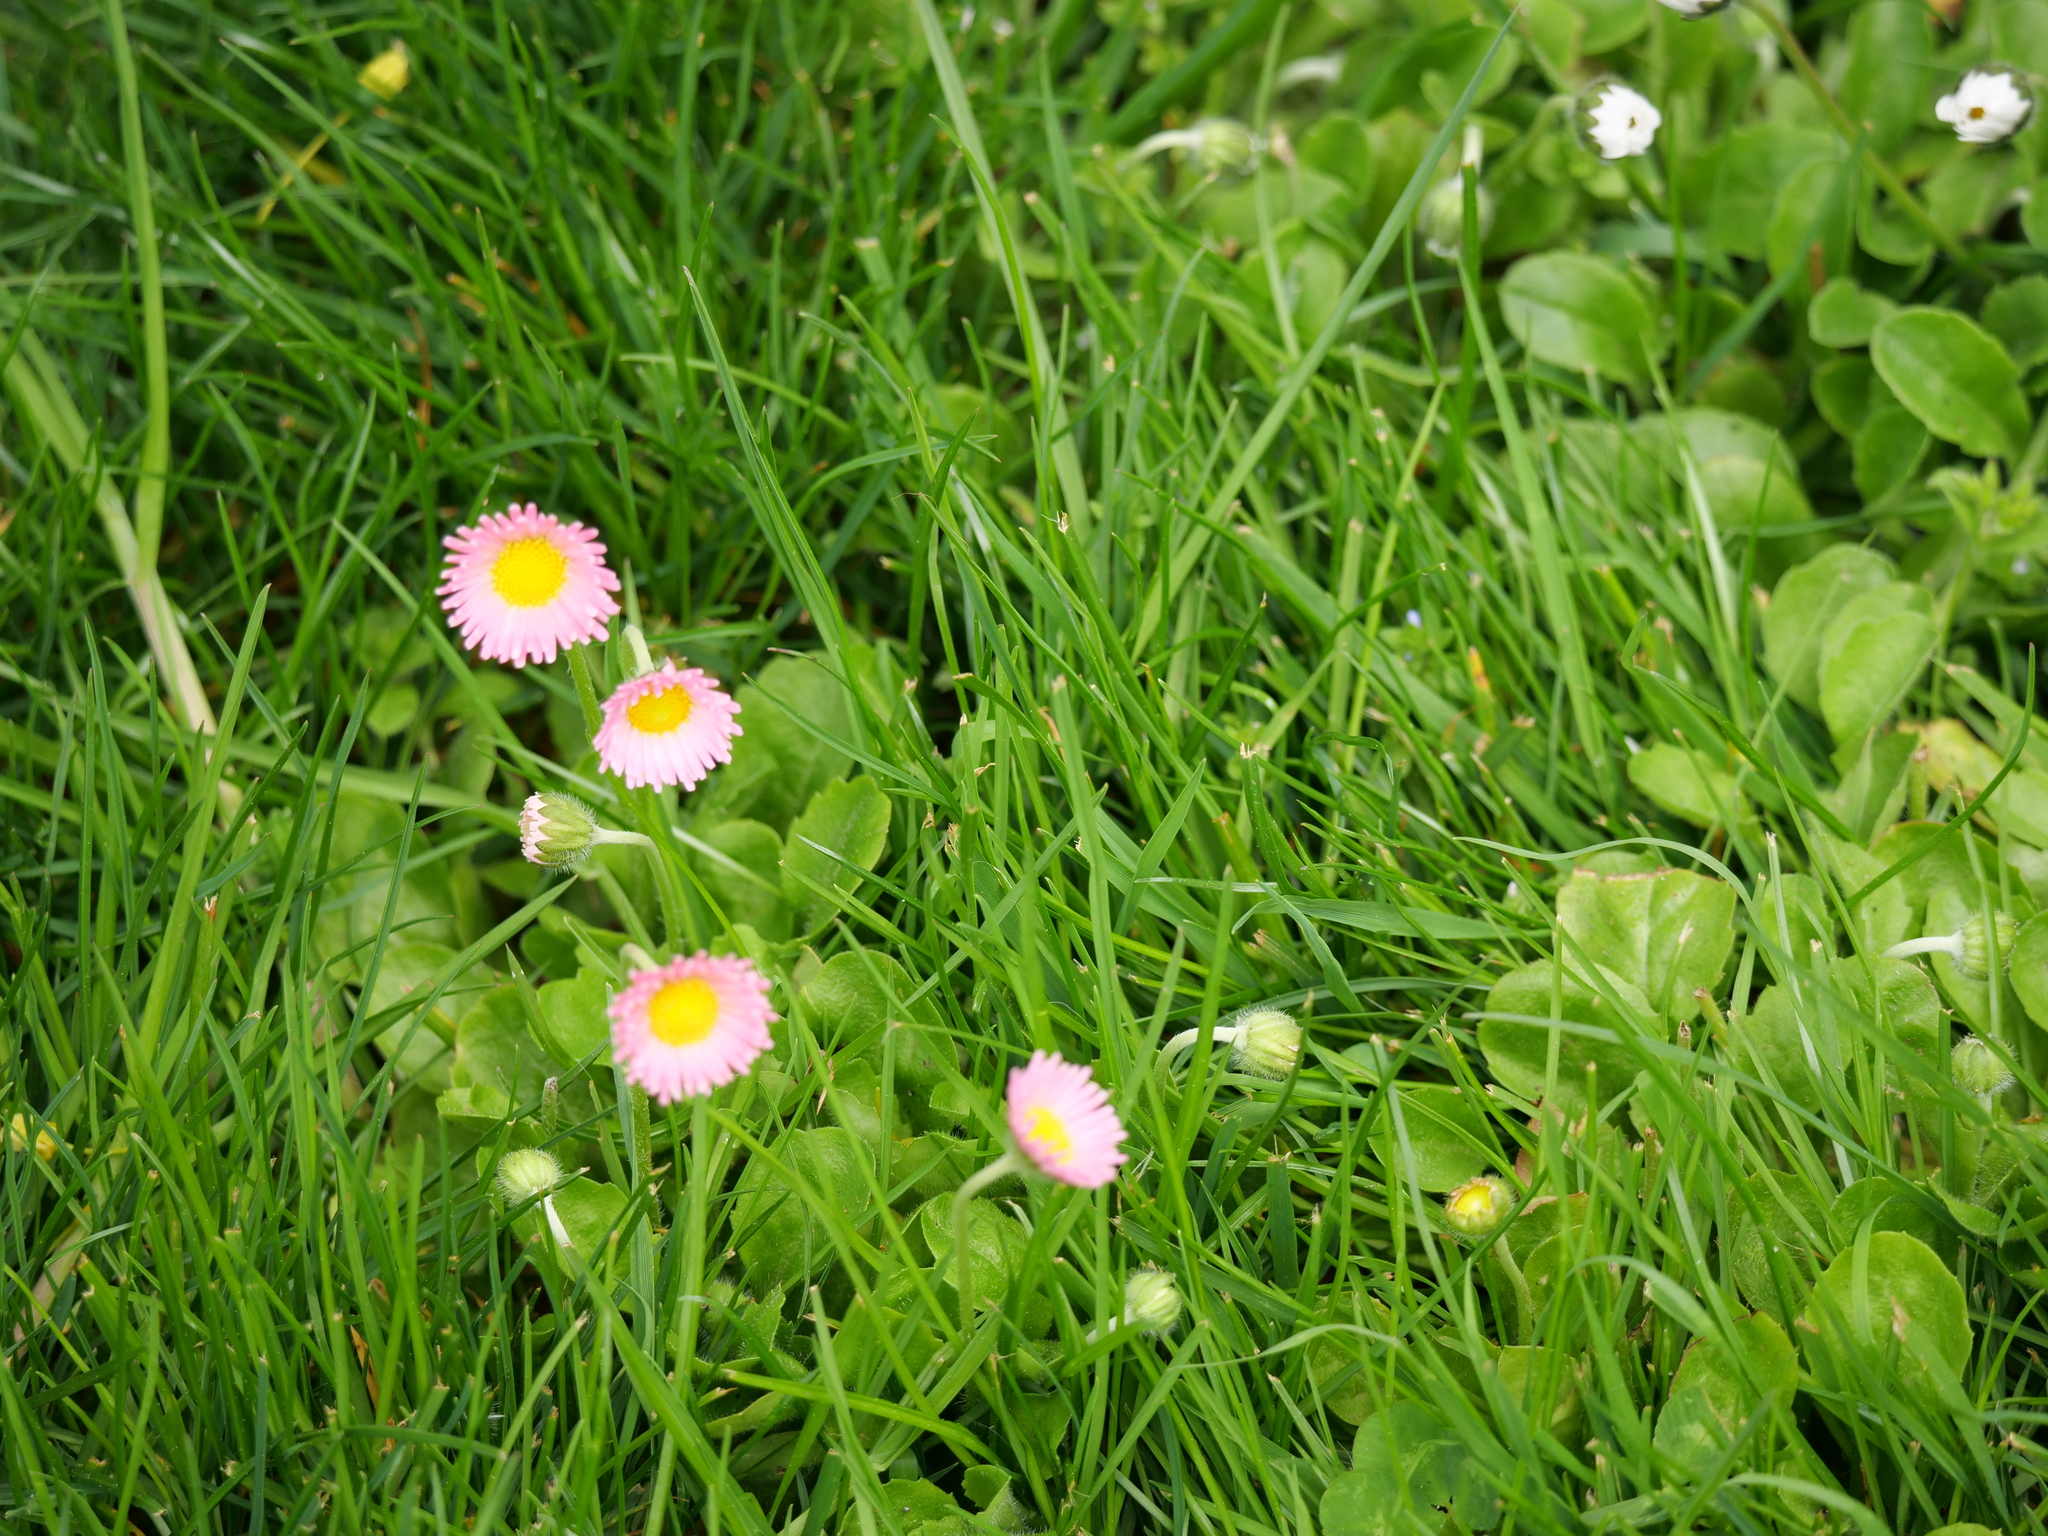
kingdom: Plantae
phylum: Tracheophyta
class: Magnoliopsida
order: Asterales
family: Asteraceae
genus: Bellis
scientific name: Bellis perennis
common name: Lawndaisy
